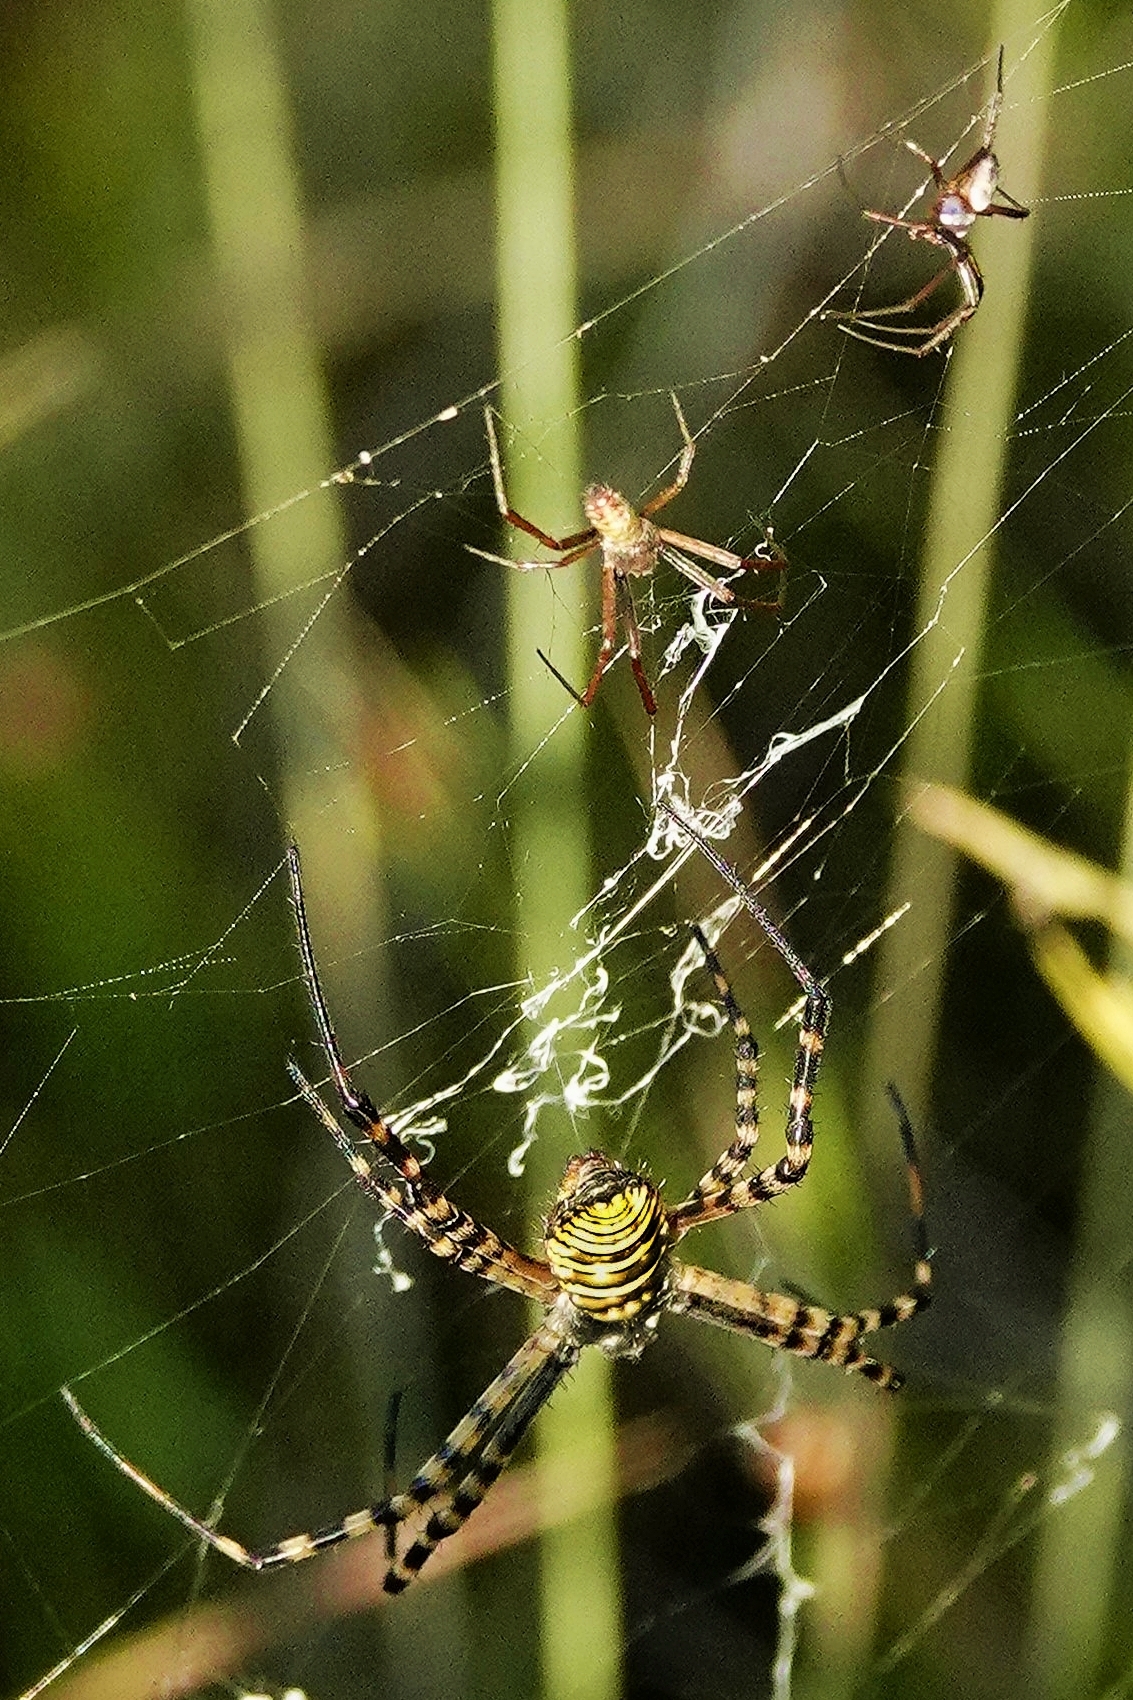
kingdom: Animalia
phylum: Arthropoda
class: Arachnida
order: Araneae
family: Araneidae
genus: Argiope
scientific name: Argiope trifasciata
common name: Banded garden spider
